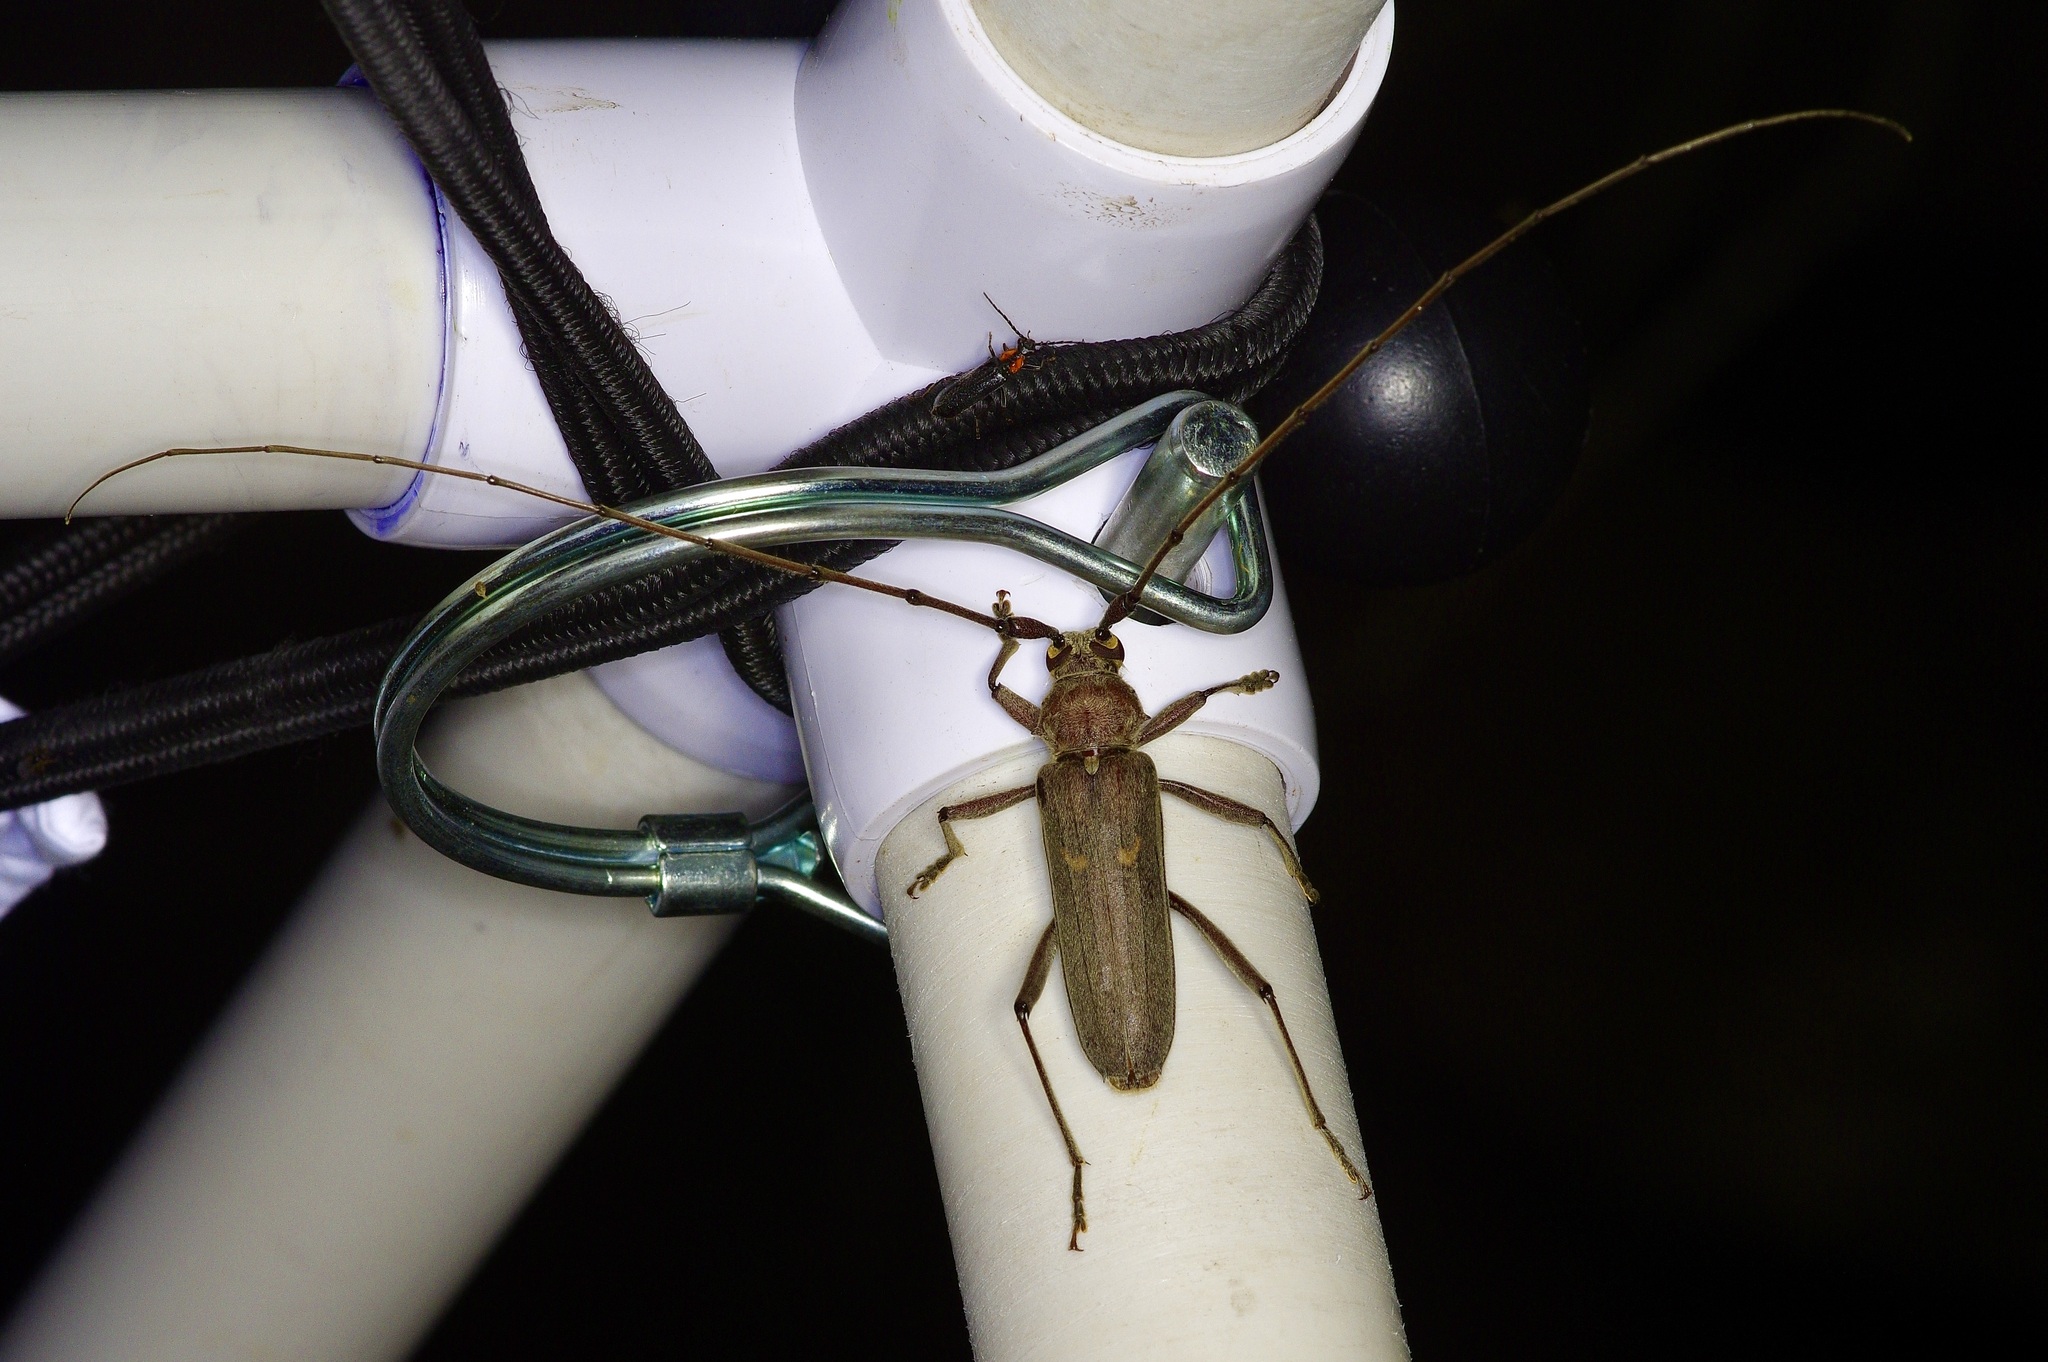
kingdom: Animalia
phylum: Arthropoda
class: Insecta
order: Coleoptera
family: Cerambycidae
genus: Knulliana
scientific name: Knulliana cincta
